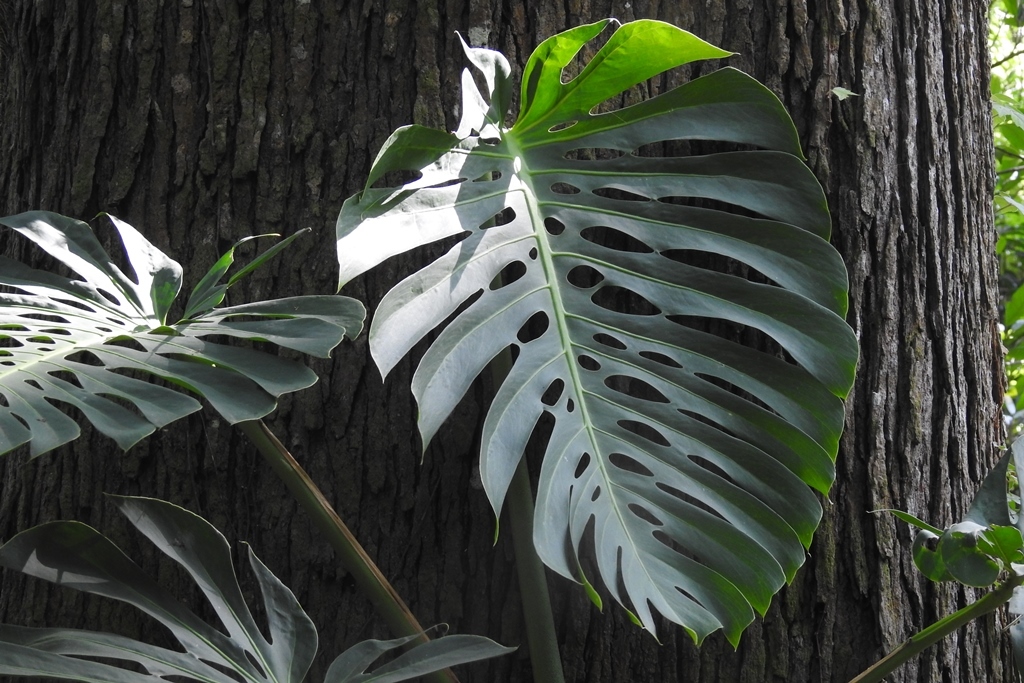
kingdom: Plantae
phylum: Tracheophyta
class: Liliopsida
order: Alismatales
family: Araceae
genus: Monstera
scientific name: Monstera deliciosa
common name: Cut-leaf-philodendron
